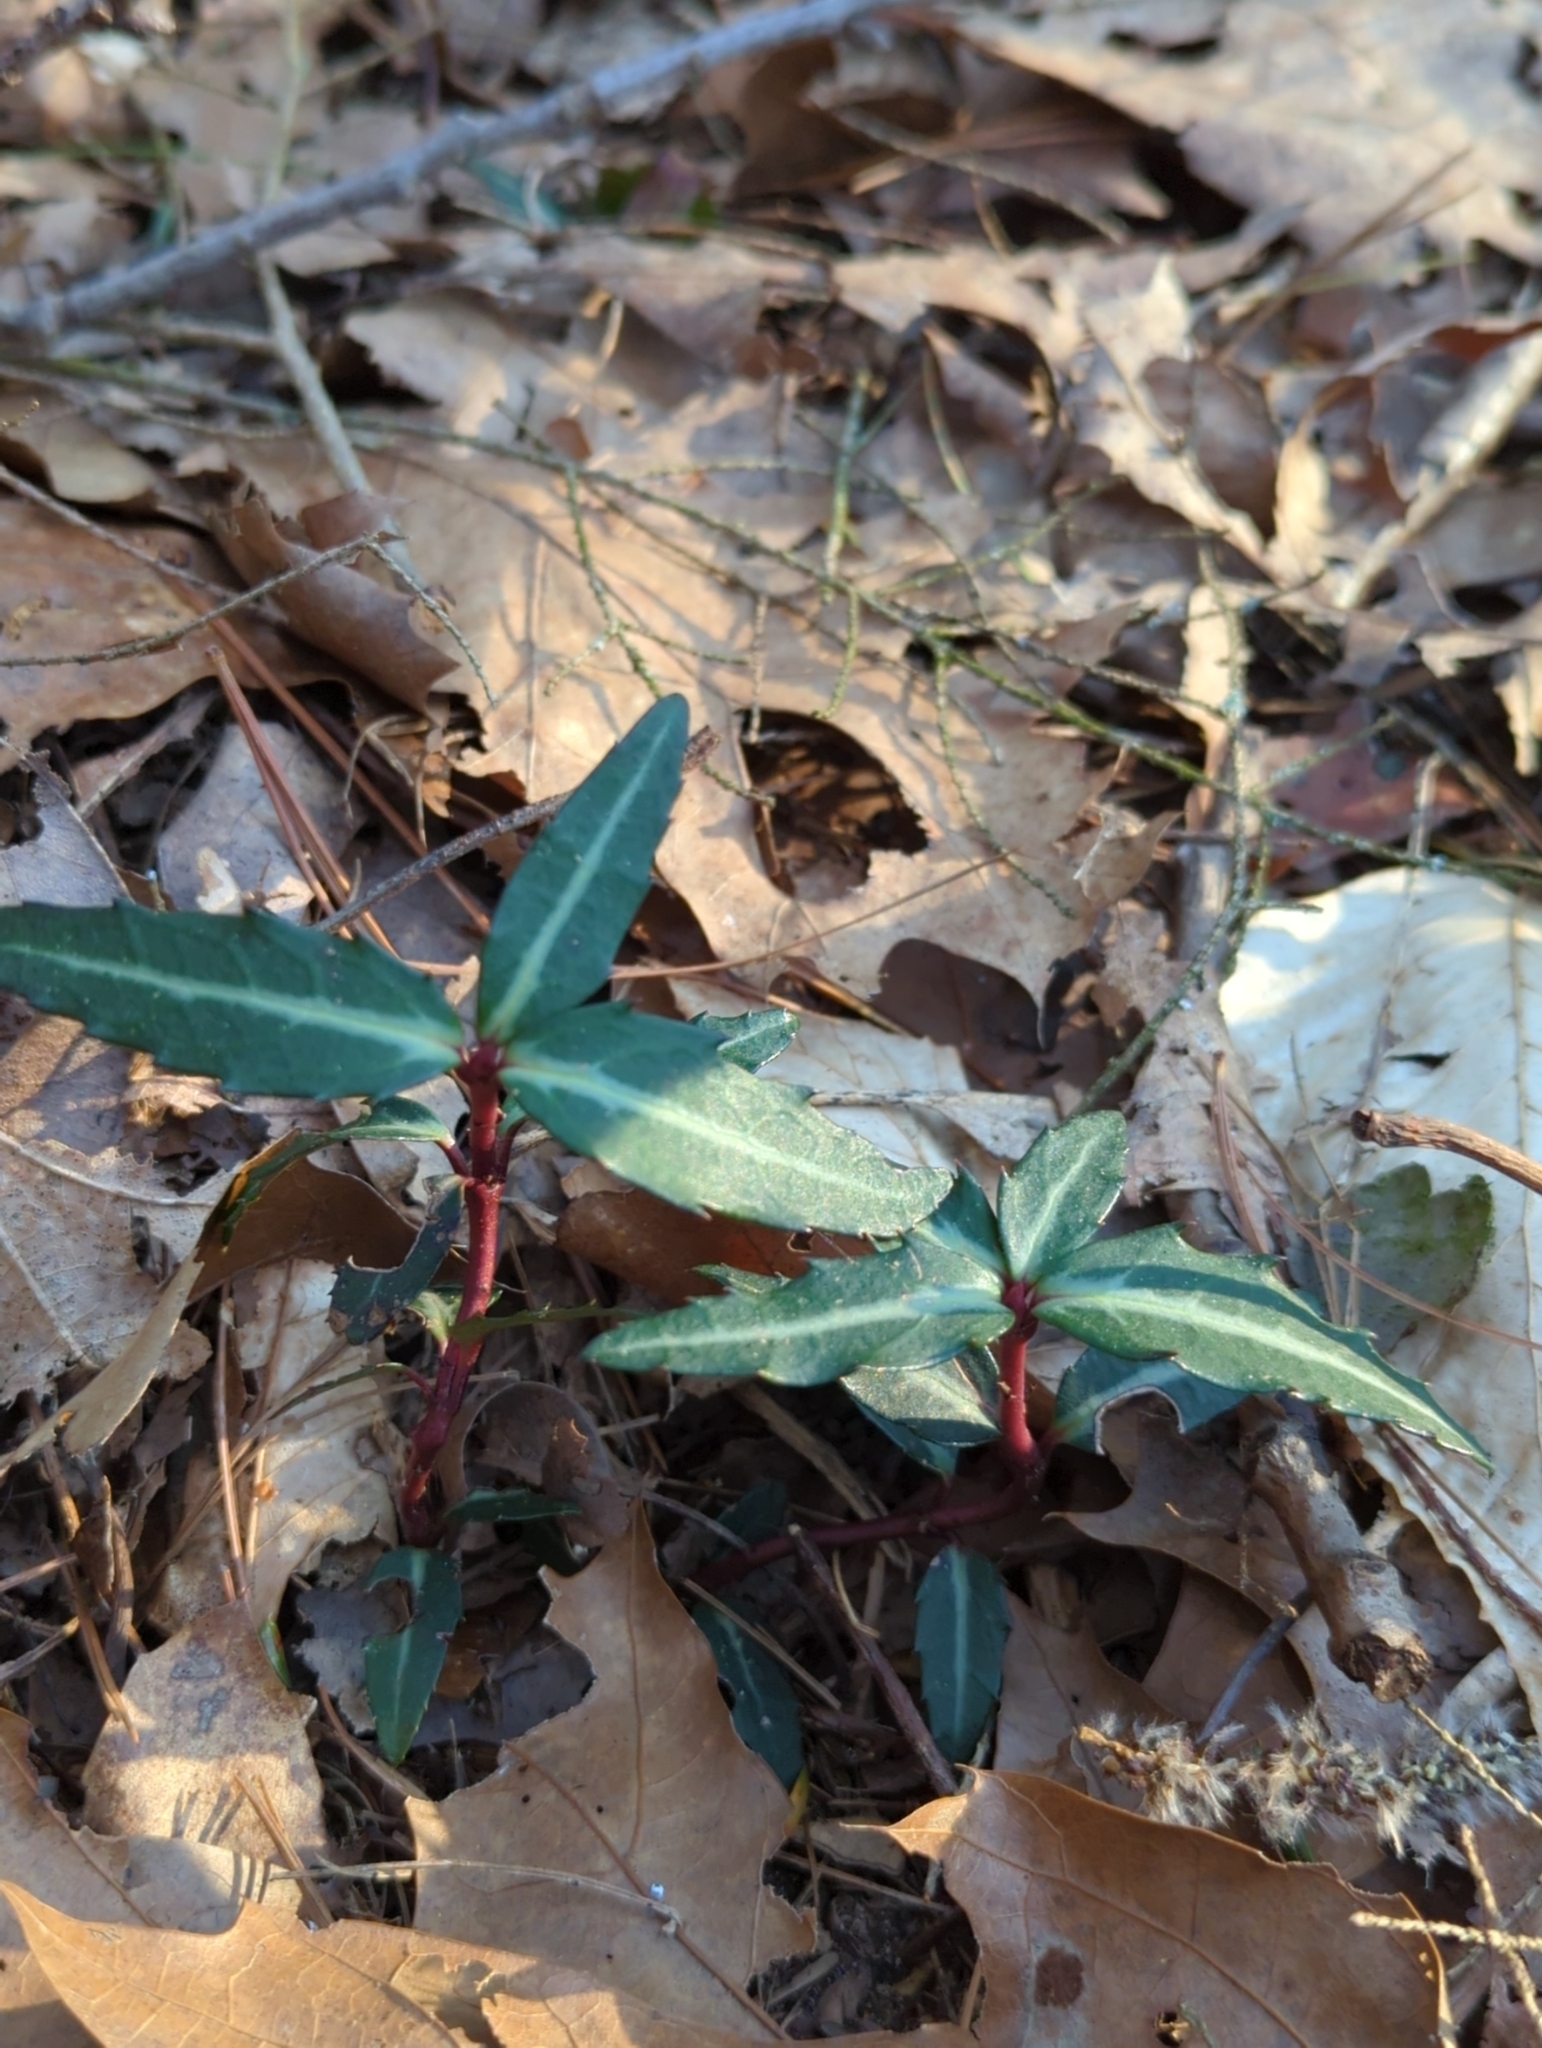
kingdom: Plantae
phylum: Tracheophyta
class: Magnoliopsida
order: Ericales
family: Ericaceae
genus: Chimaphila
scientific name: Chimaphila maculata
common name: Spotted pipsissewa
